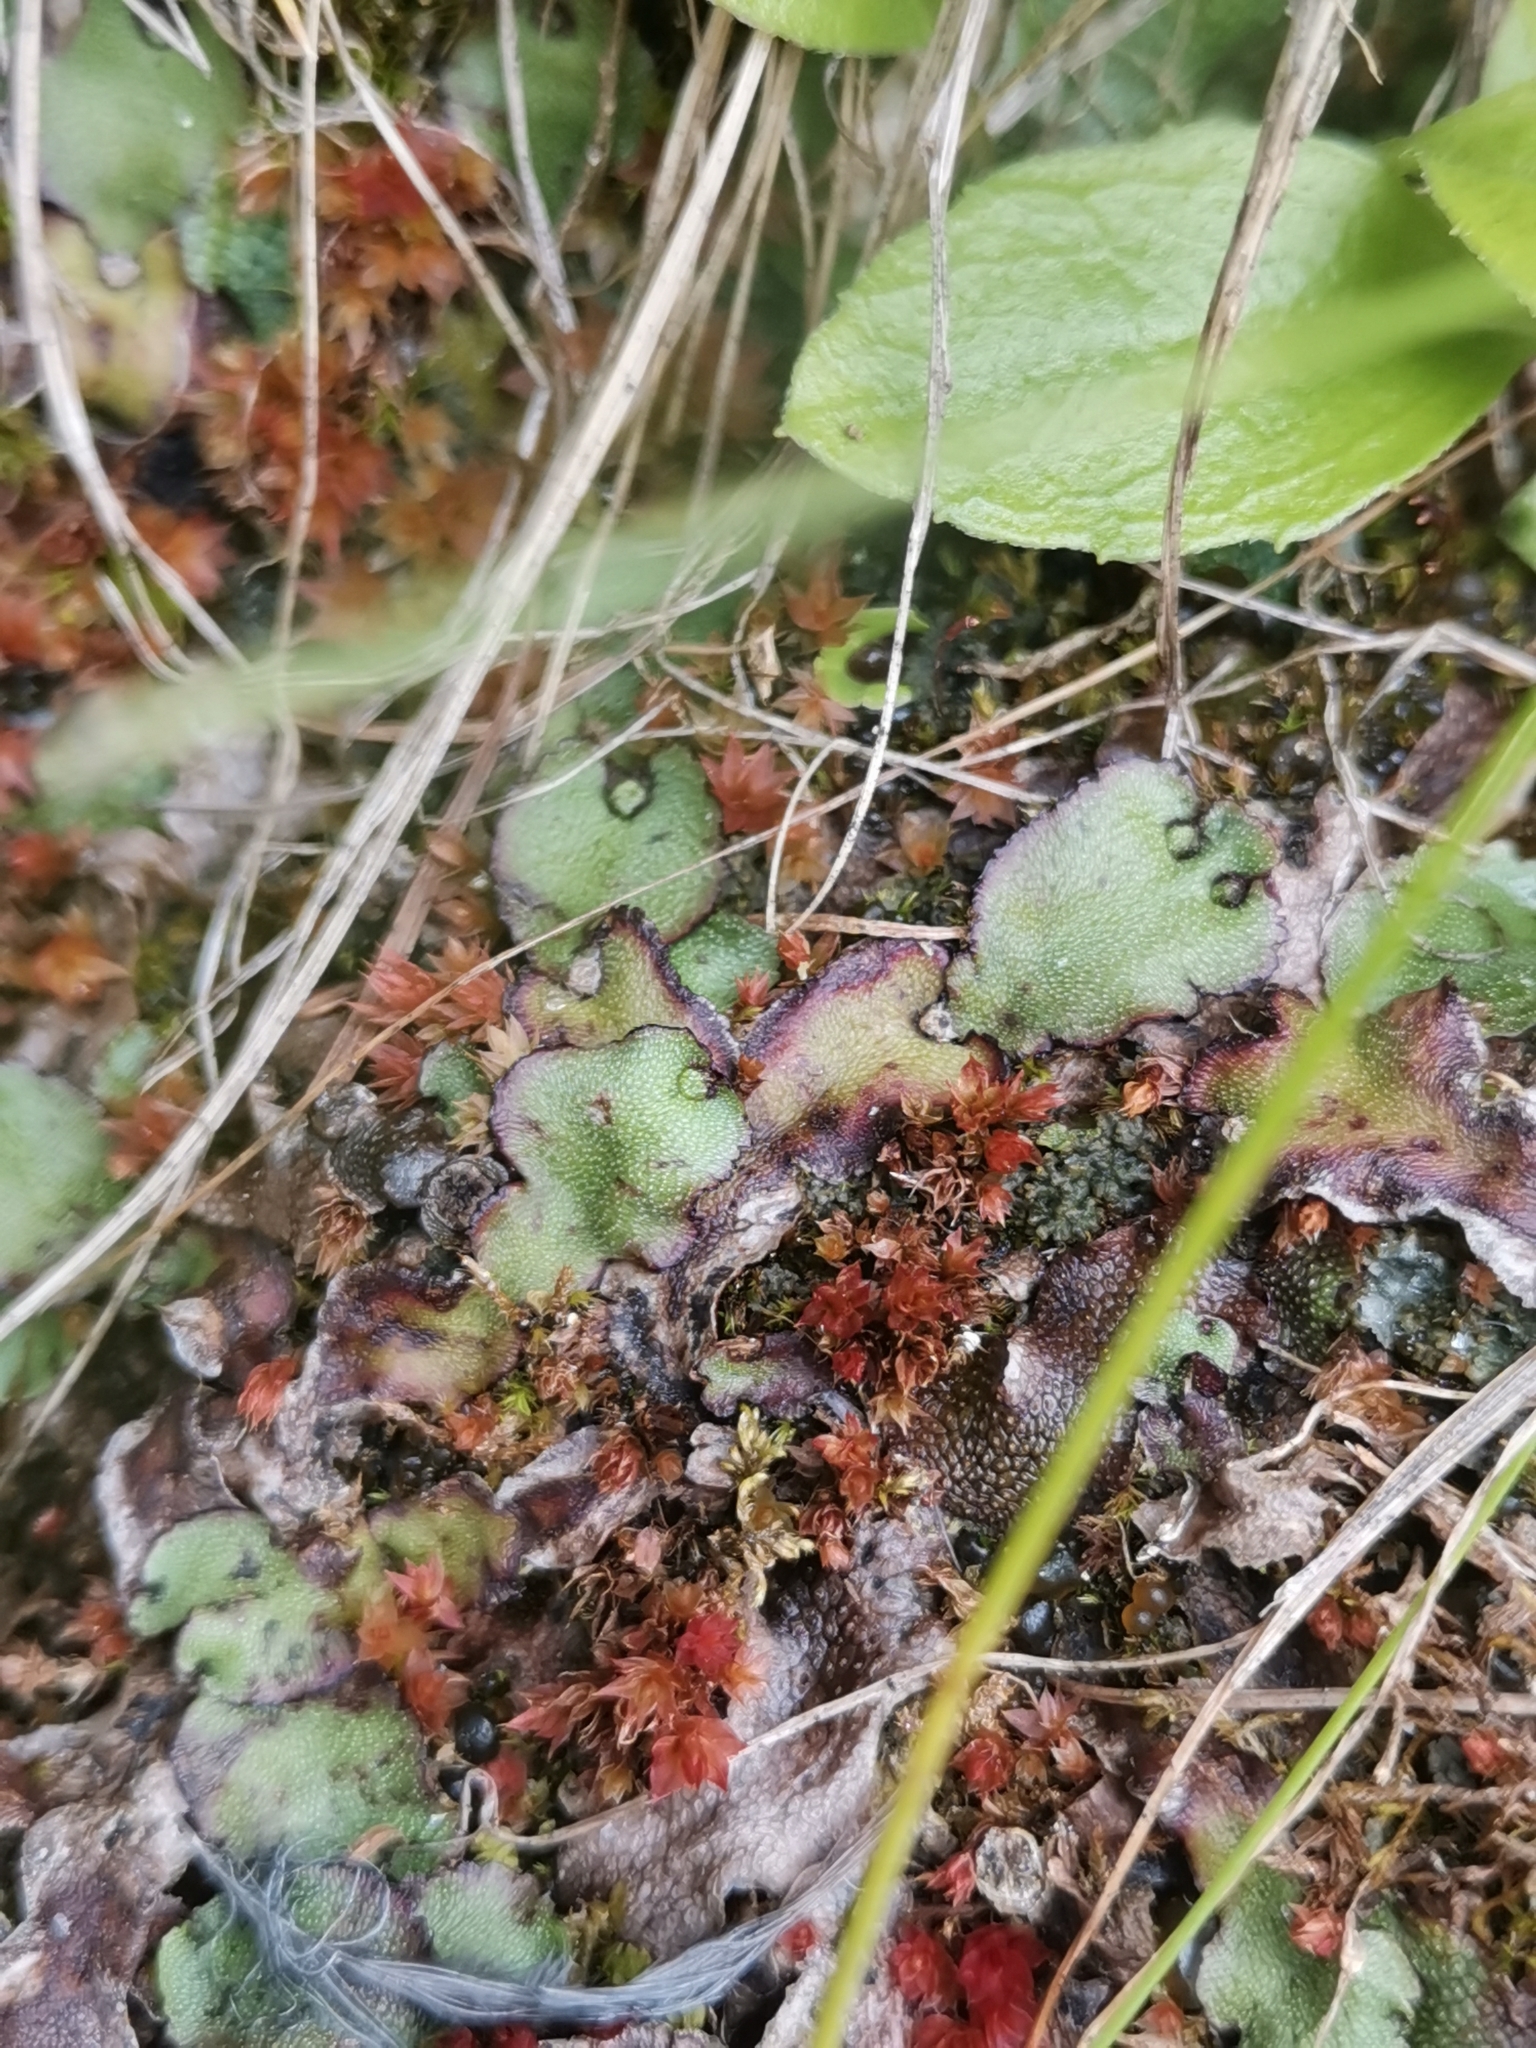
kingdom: Plantae
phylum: Marchantiophyta
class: Marchantiopsida
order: Marchantiales
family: Marchantiaceae
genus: Marchantia
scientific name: Marchantia quadrata
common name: Narrow mushroom-headed liverwort
